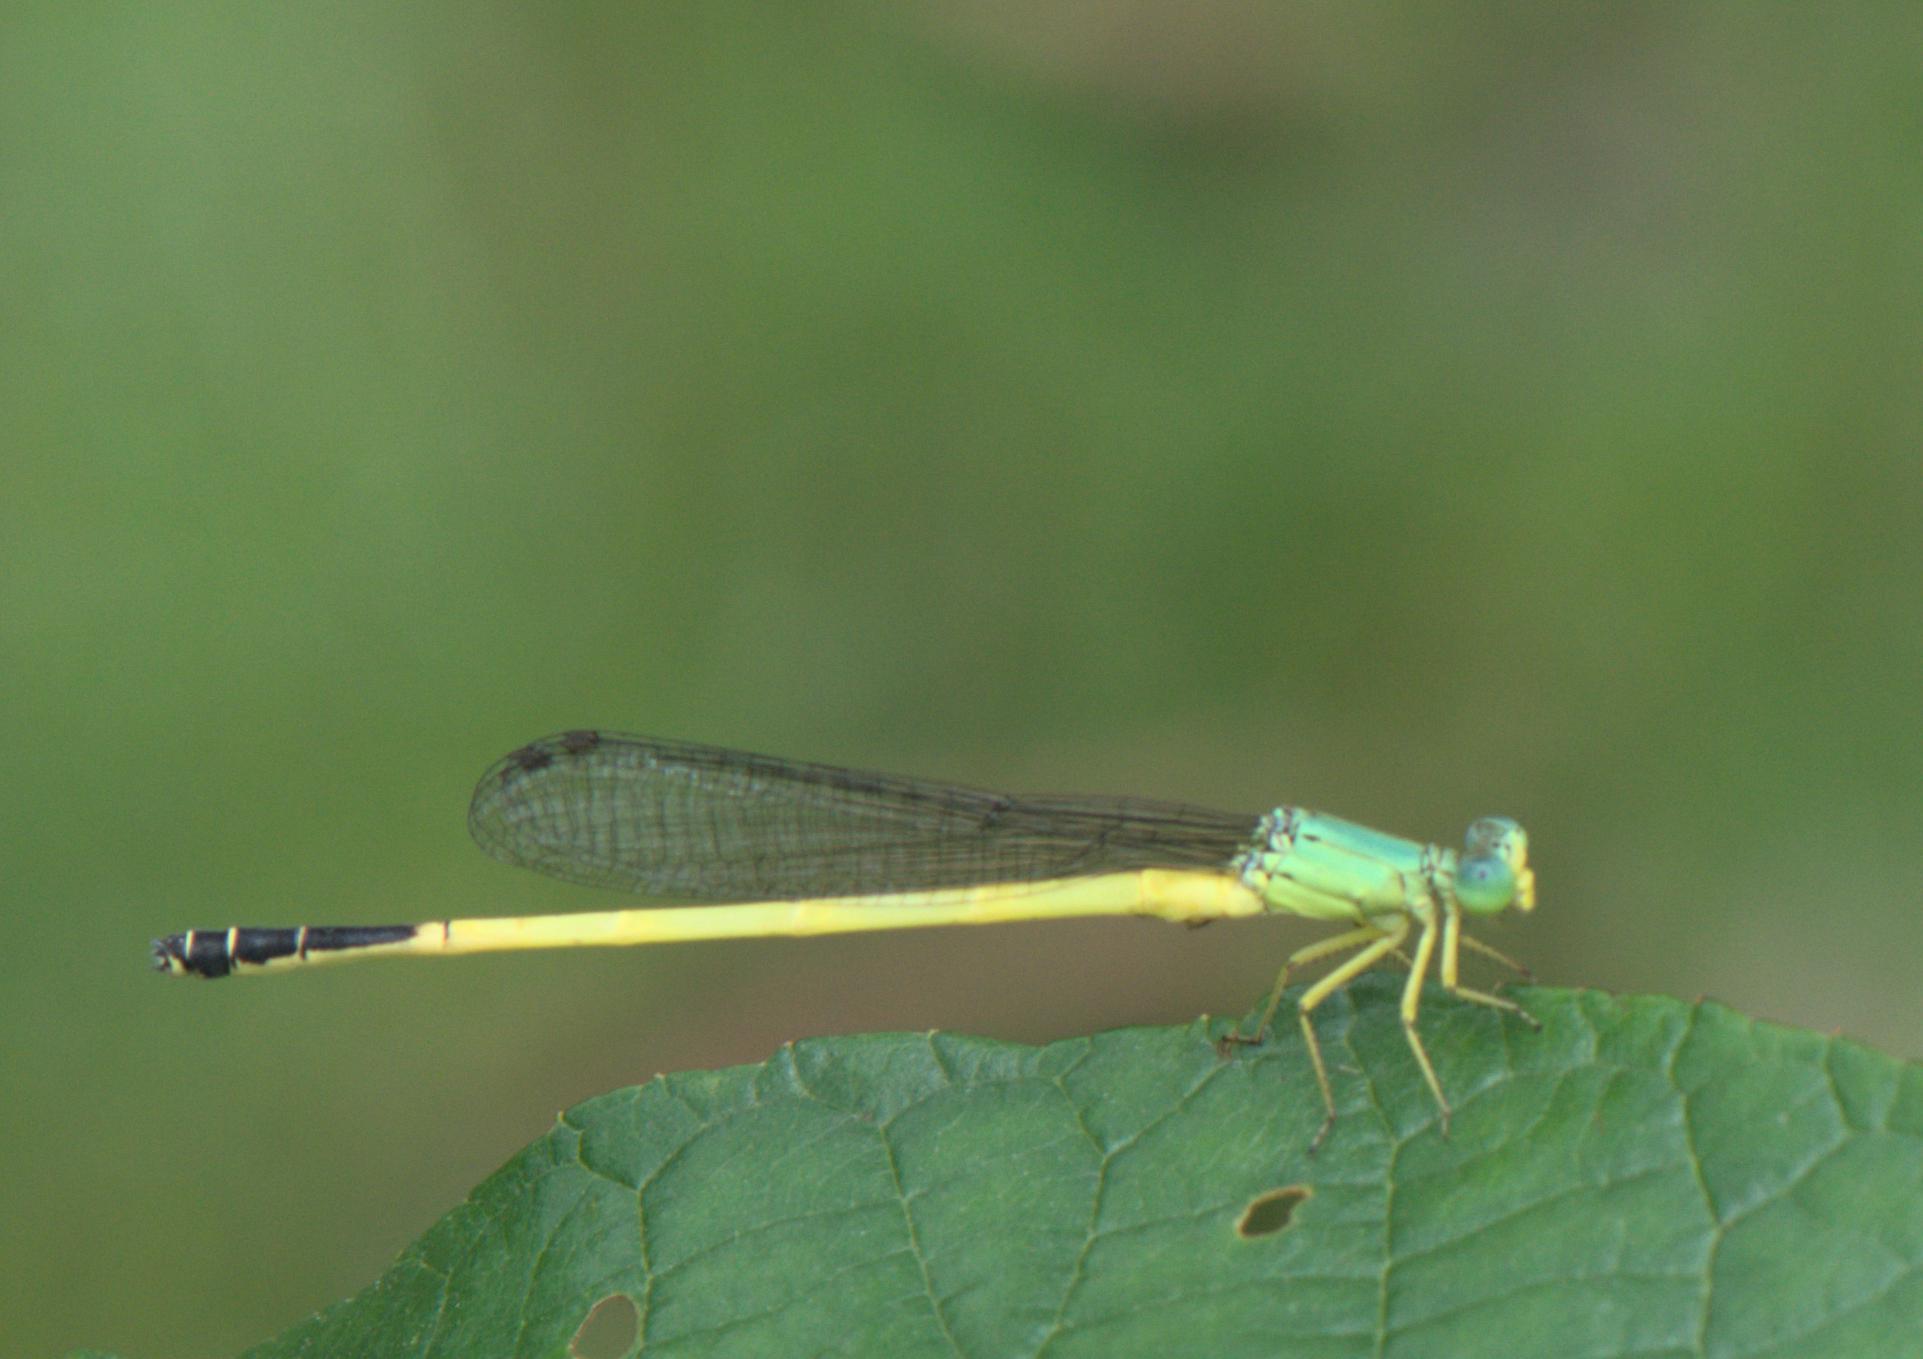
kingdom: Animalia
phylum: Arthropoda
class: Insecta
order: Odonata
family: Coenagrionidae
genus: Ceriagrion
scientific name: Ceriagrion fallax
